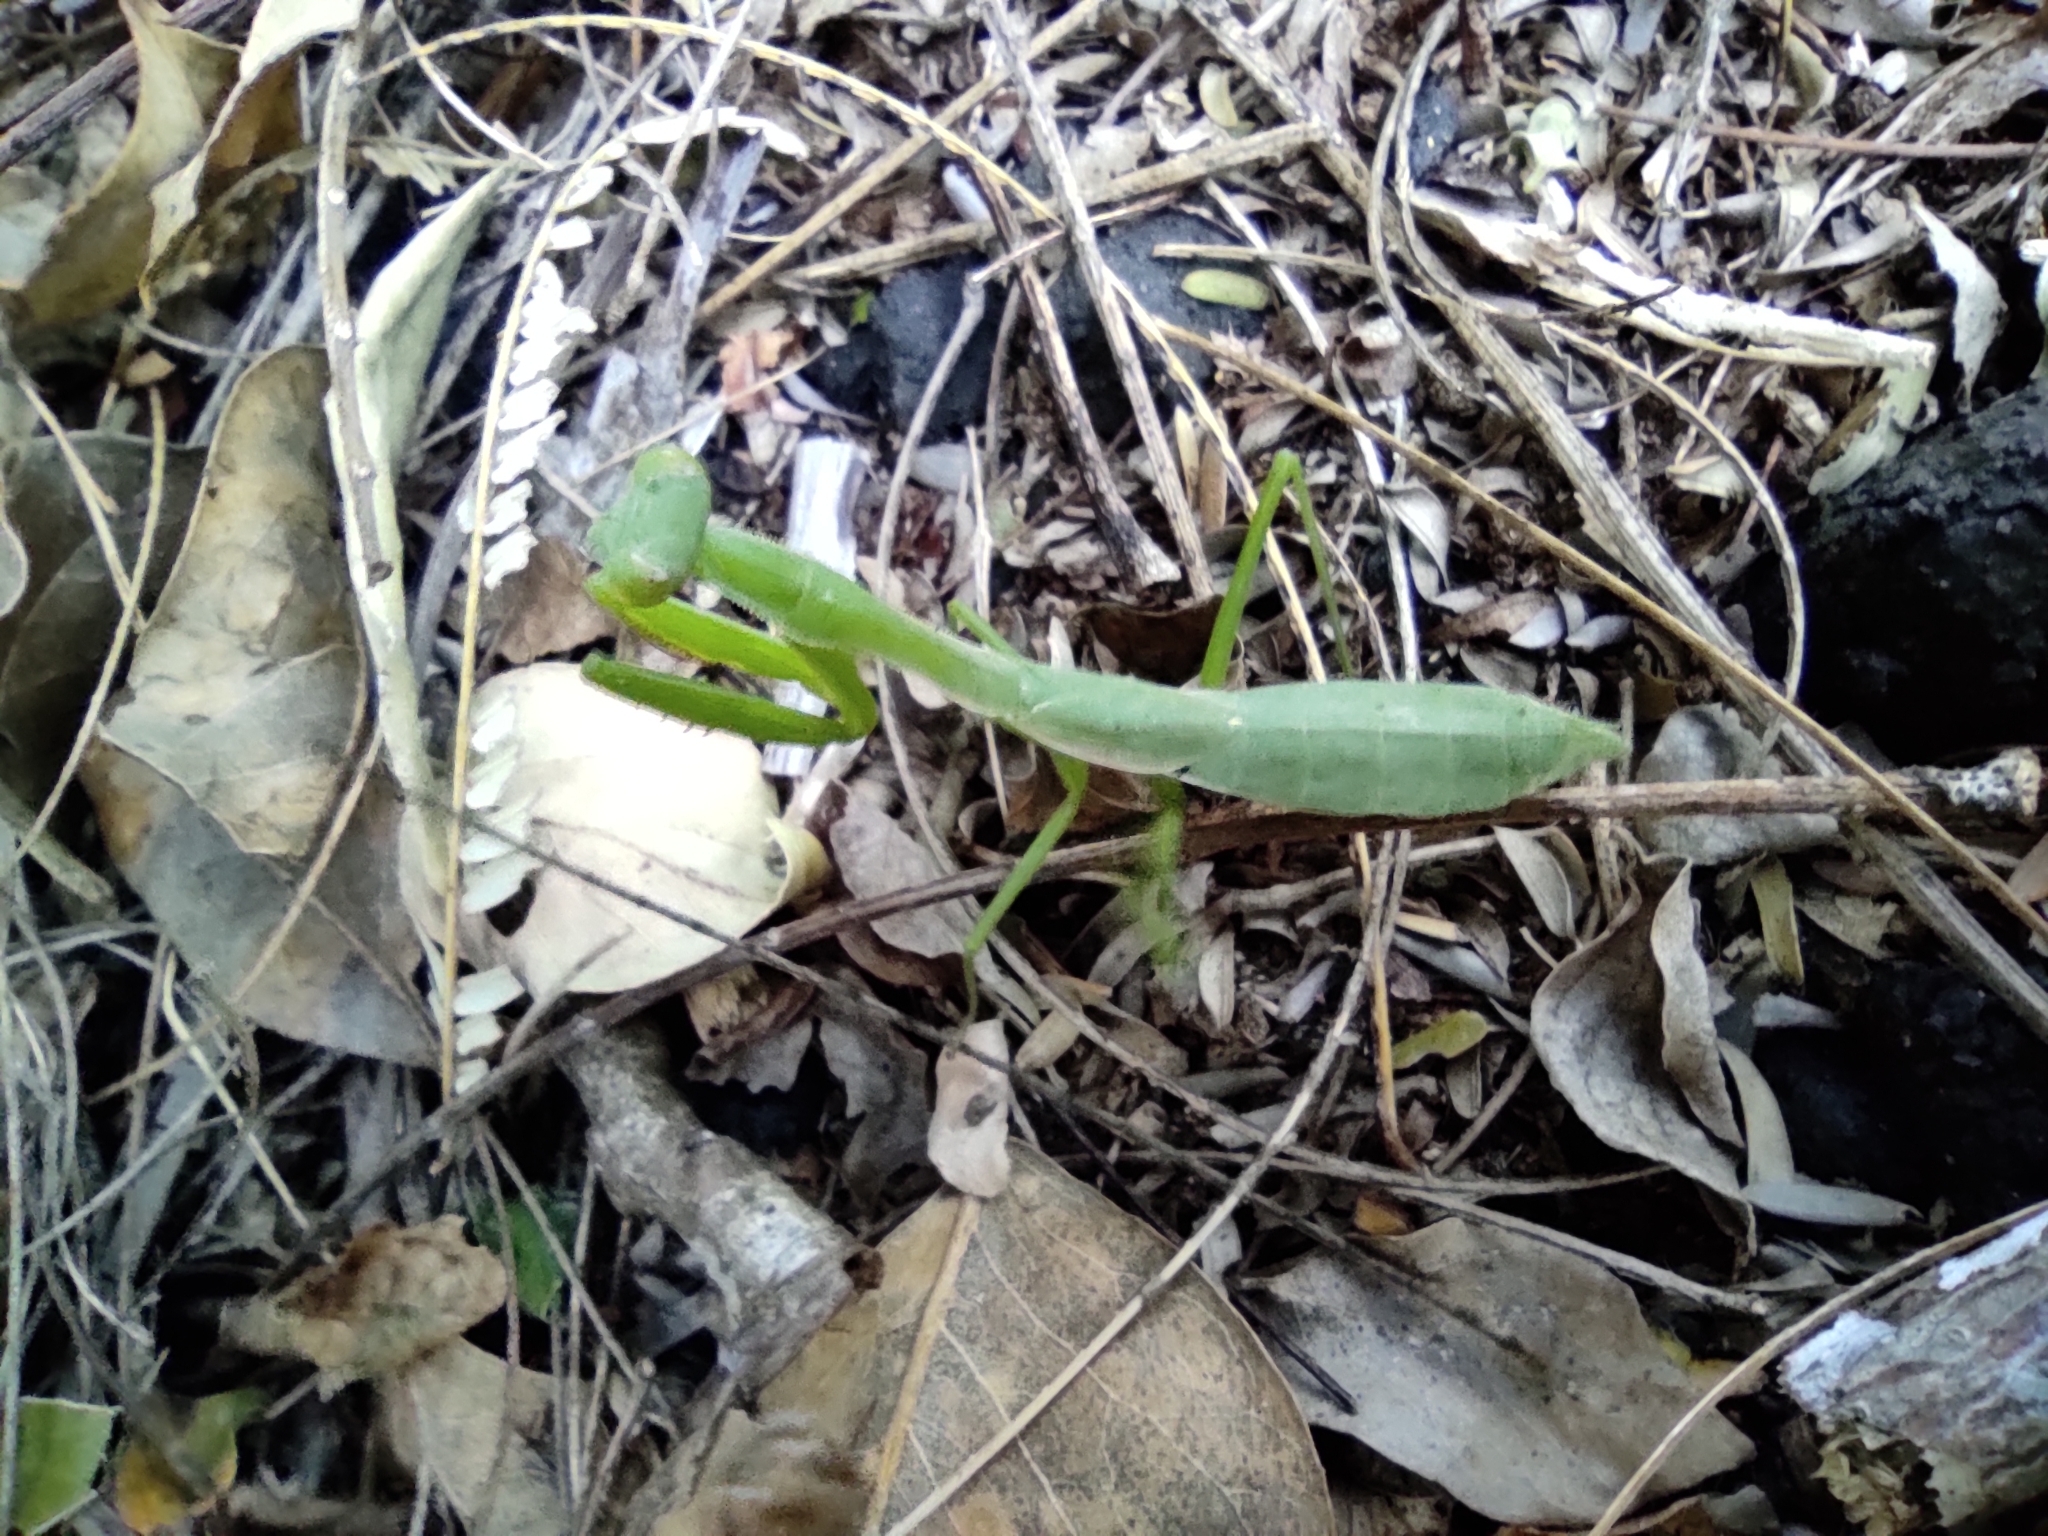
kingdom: Animalia
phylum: Arthropoda
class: Insecta
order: Mantodea
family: Mantidae
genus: Stagmomantis
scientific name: Stagmomantis nahua
